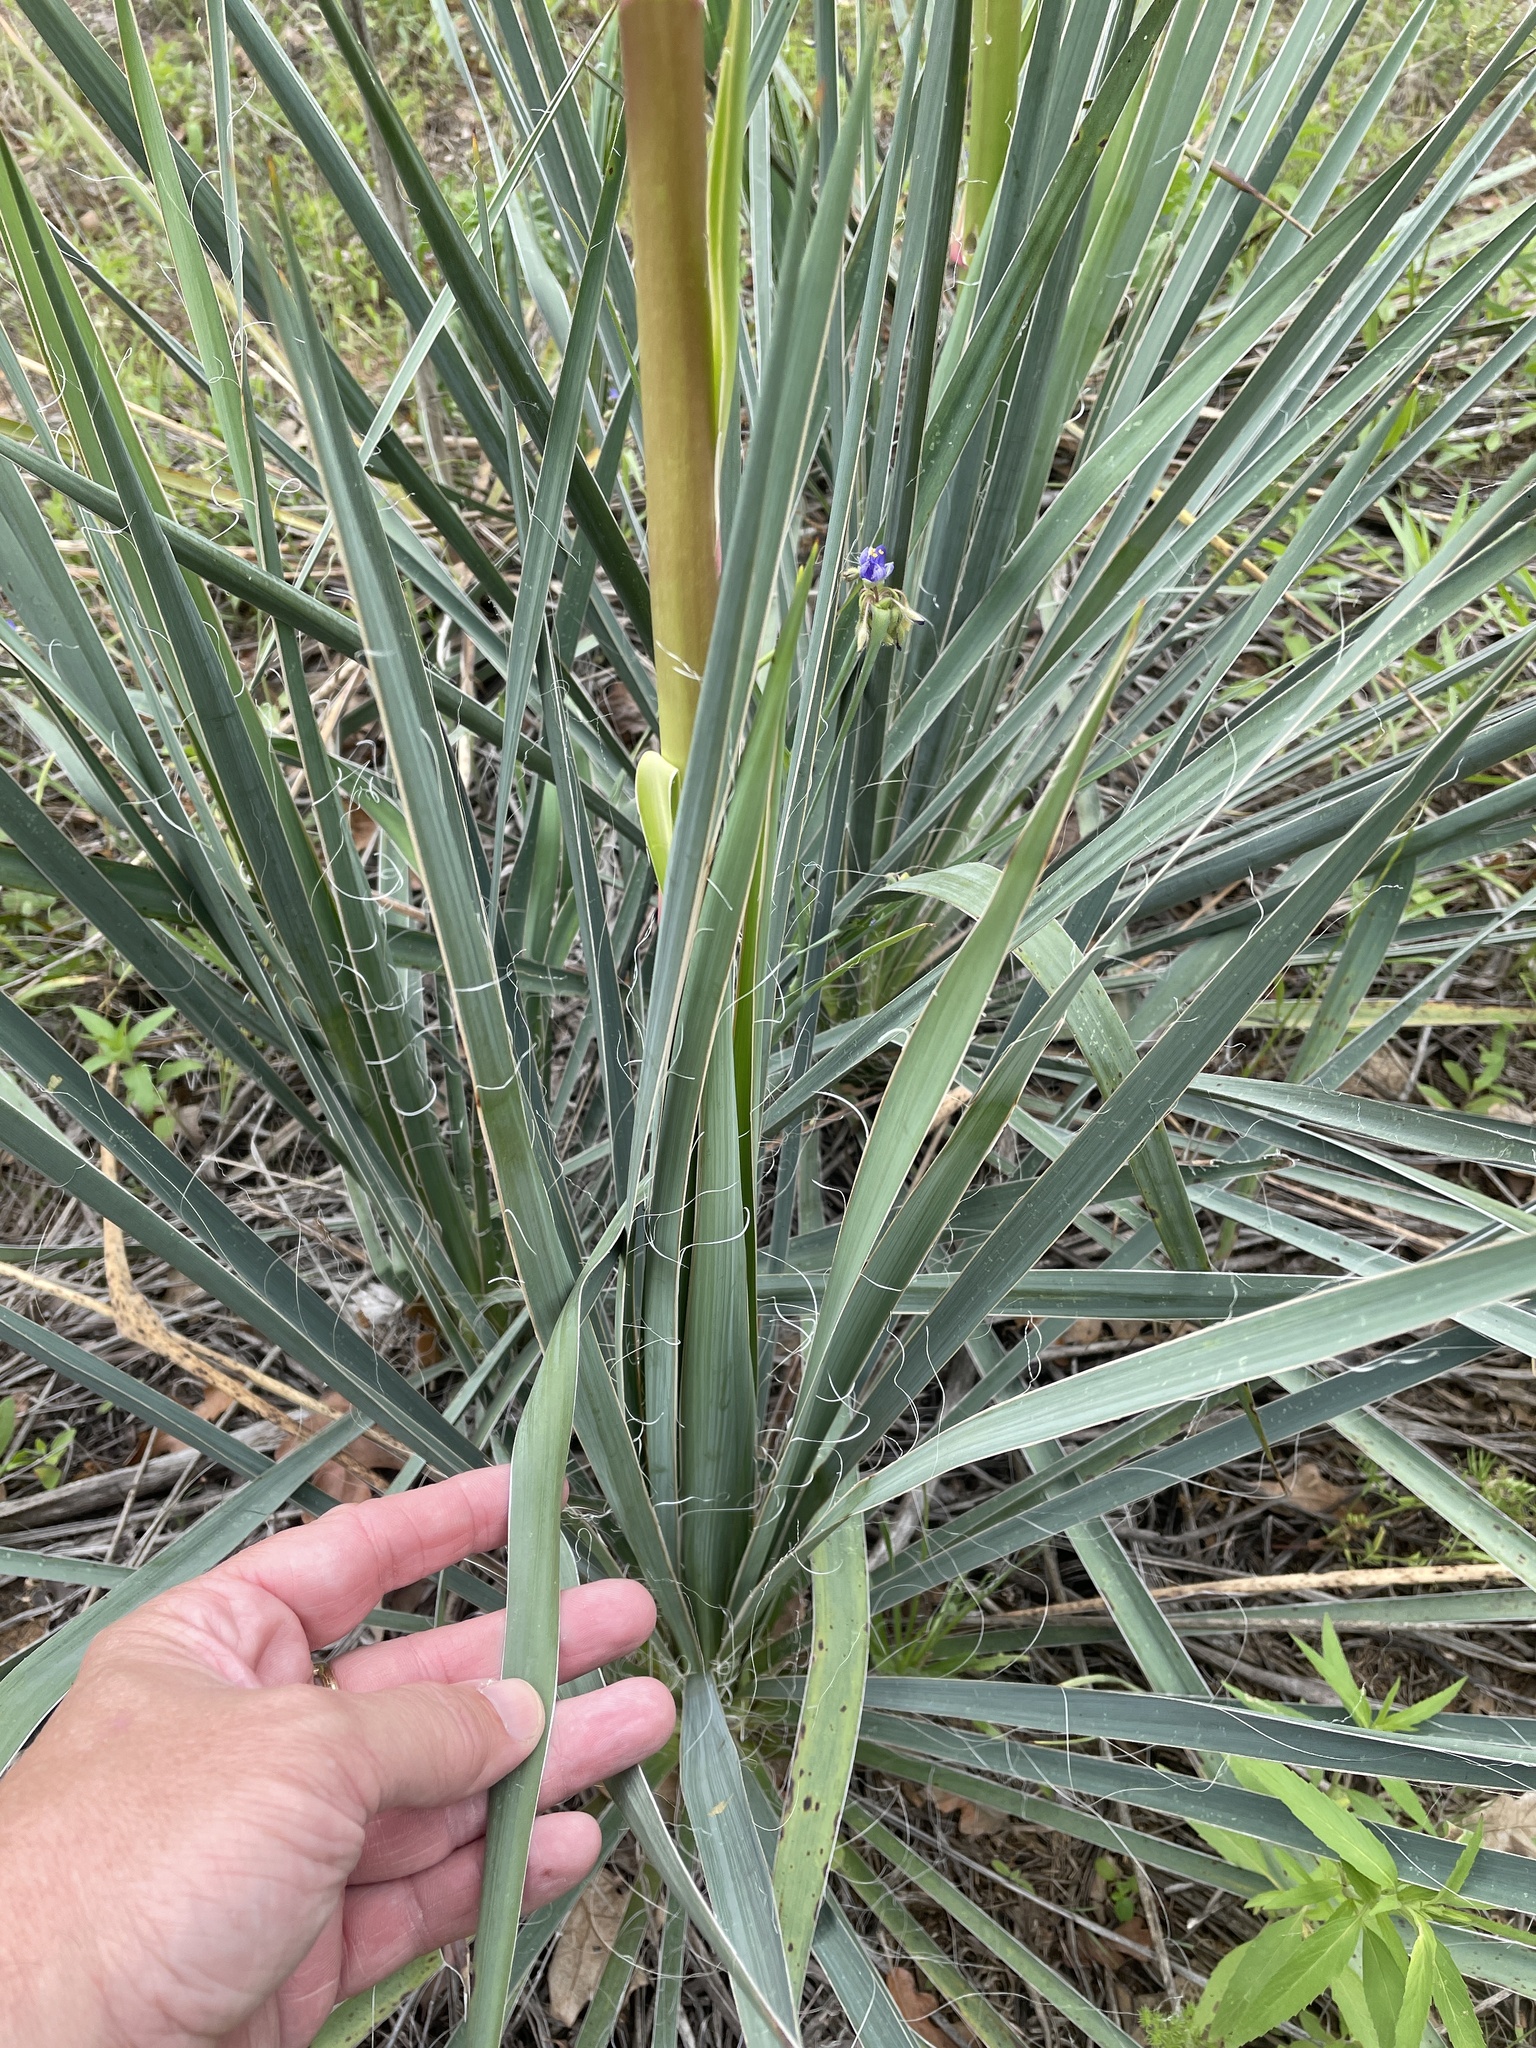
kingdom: Plantae
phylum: Tracheophyta
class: Liliopsida
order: Asparagales
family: Asparagaceae
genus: Yucca
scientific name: Yucca necopina
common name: Glen rose yucca
